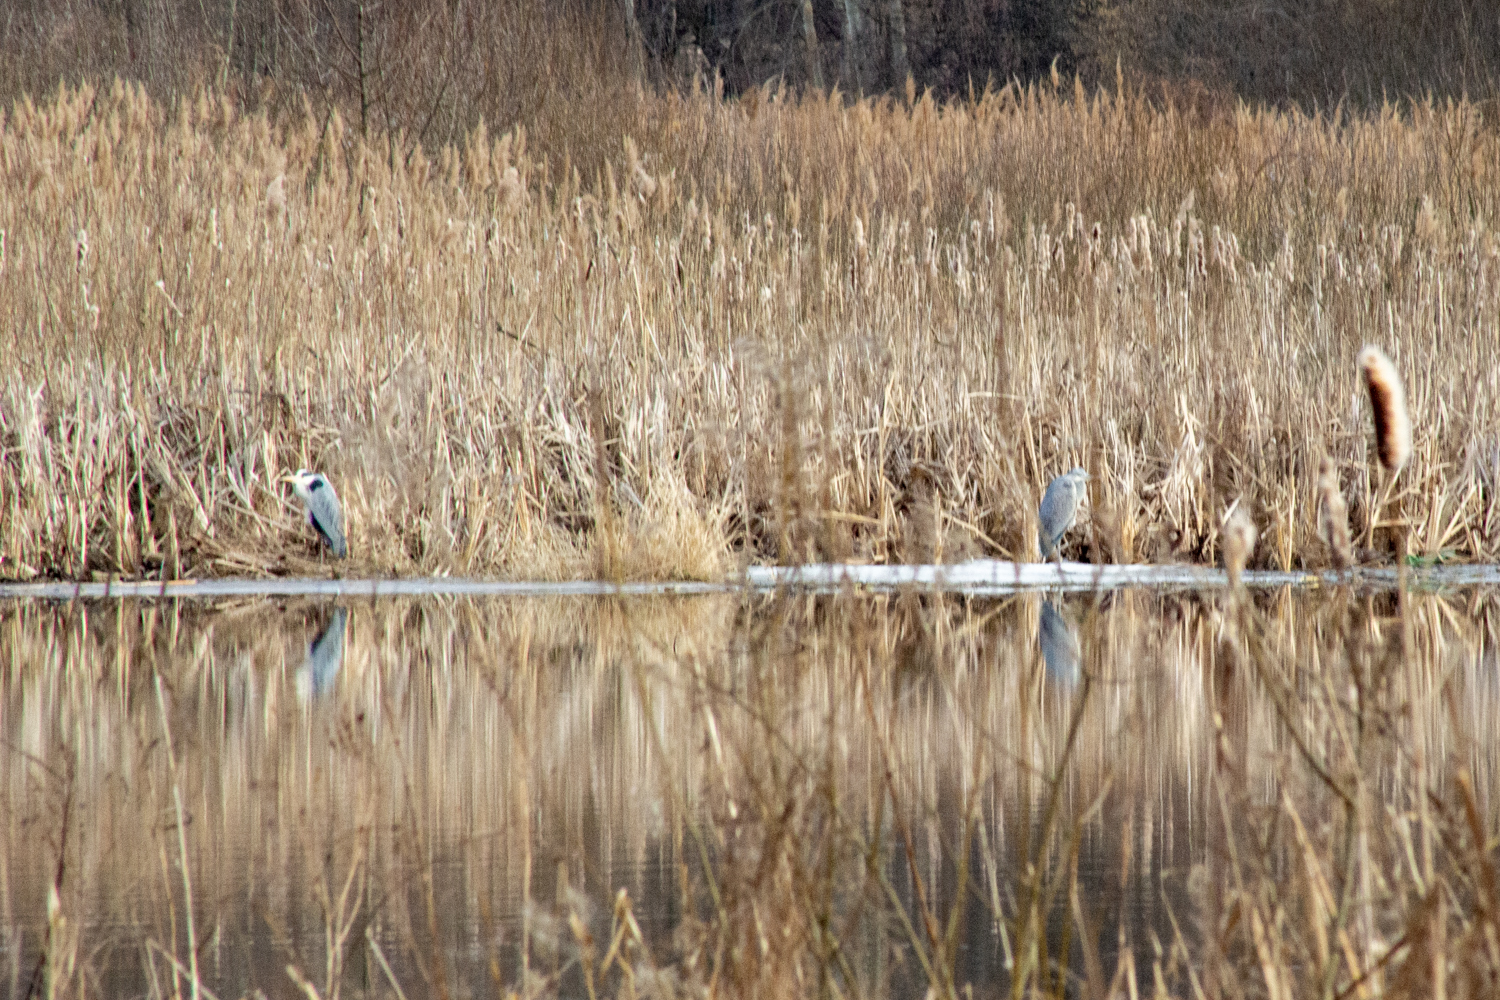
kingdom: Animalia
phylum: Chordata
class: Aves
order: Pelecaniformes
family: Ardeidae
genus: Ardea
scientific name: Ardea cinerea
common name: Grey heron
